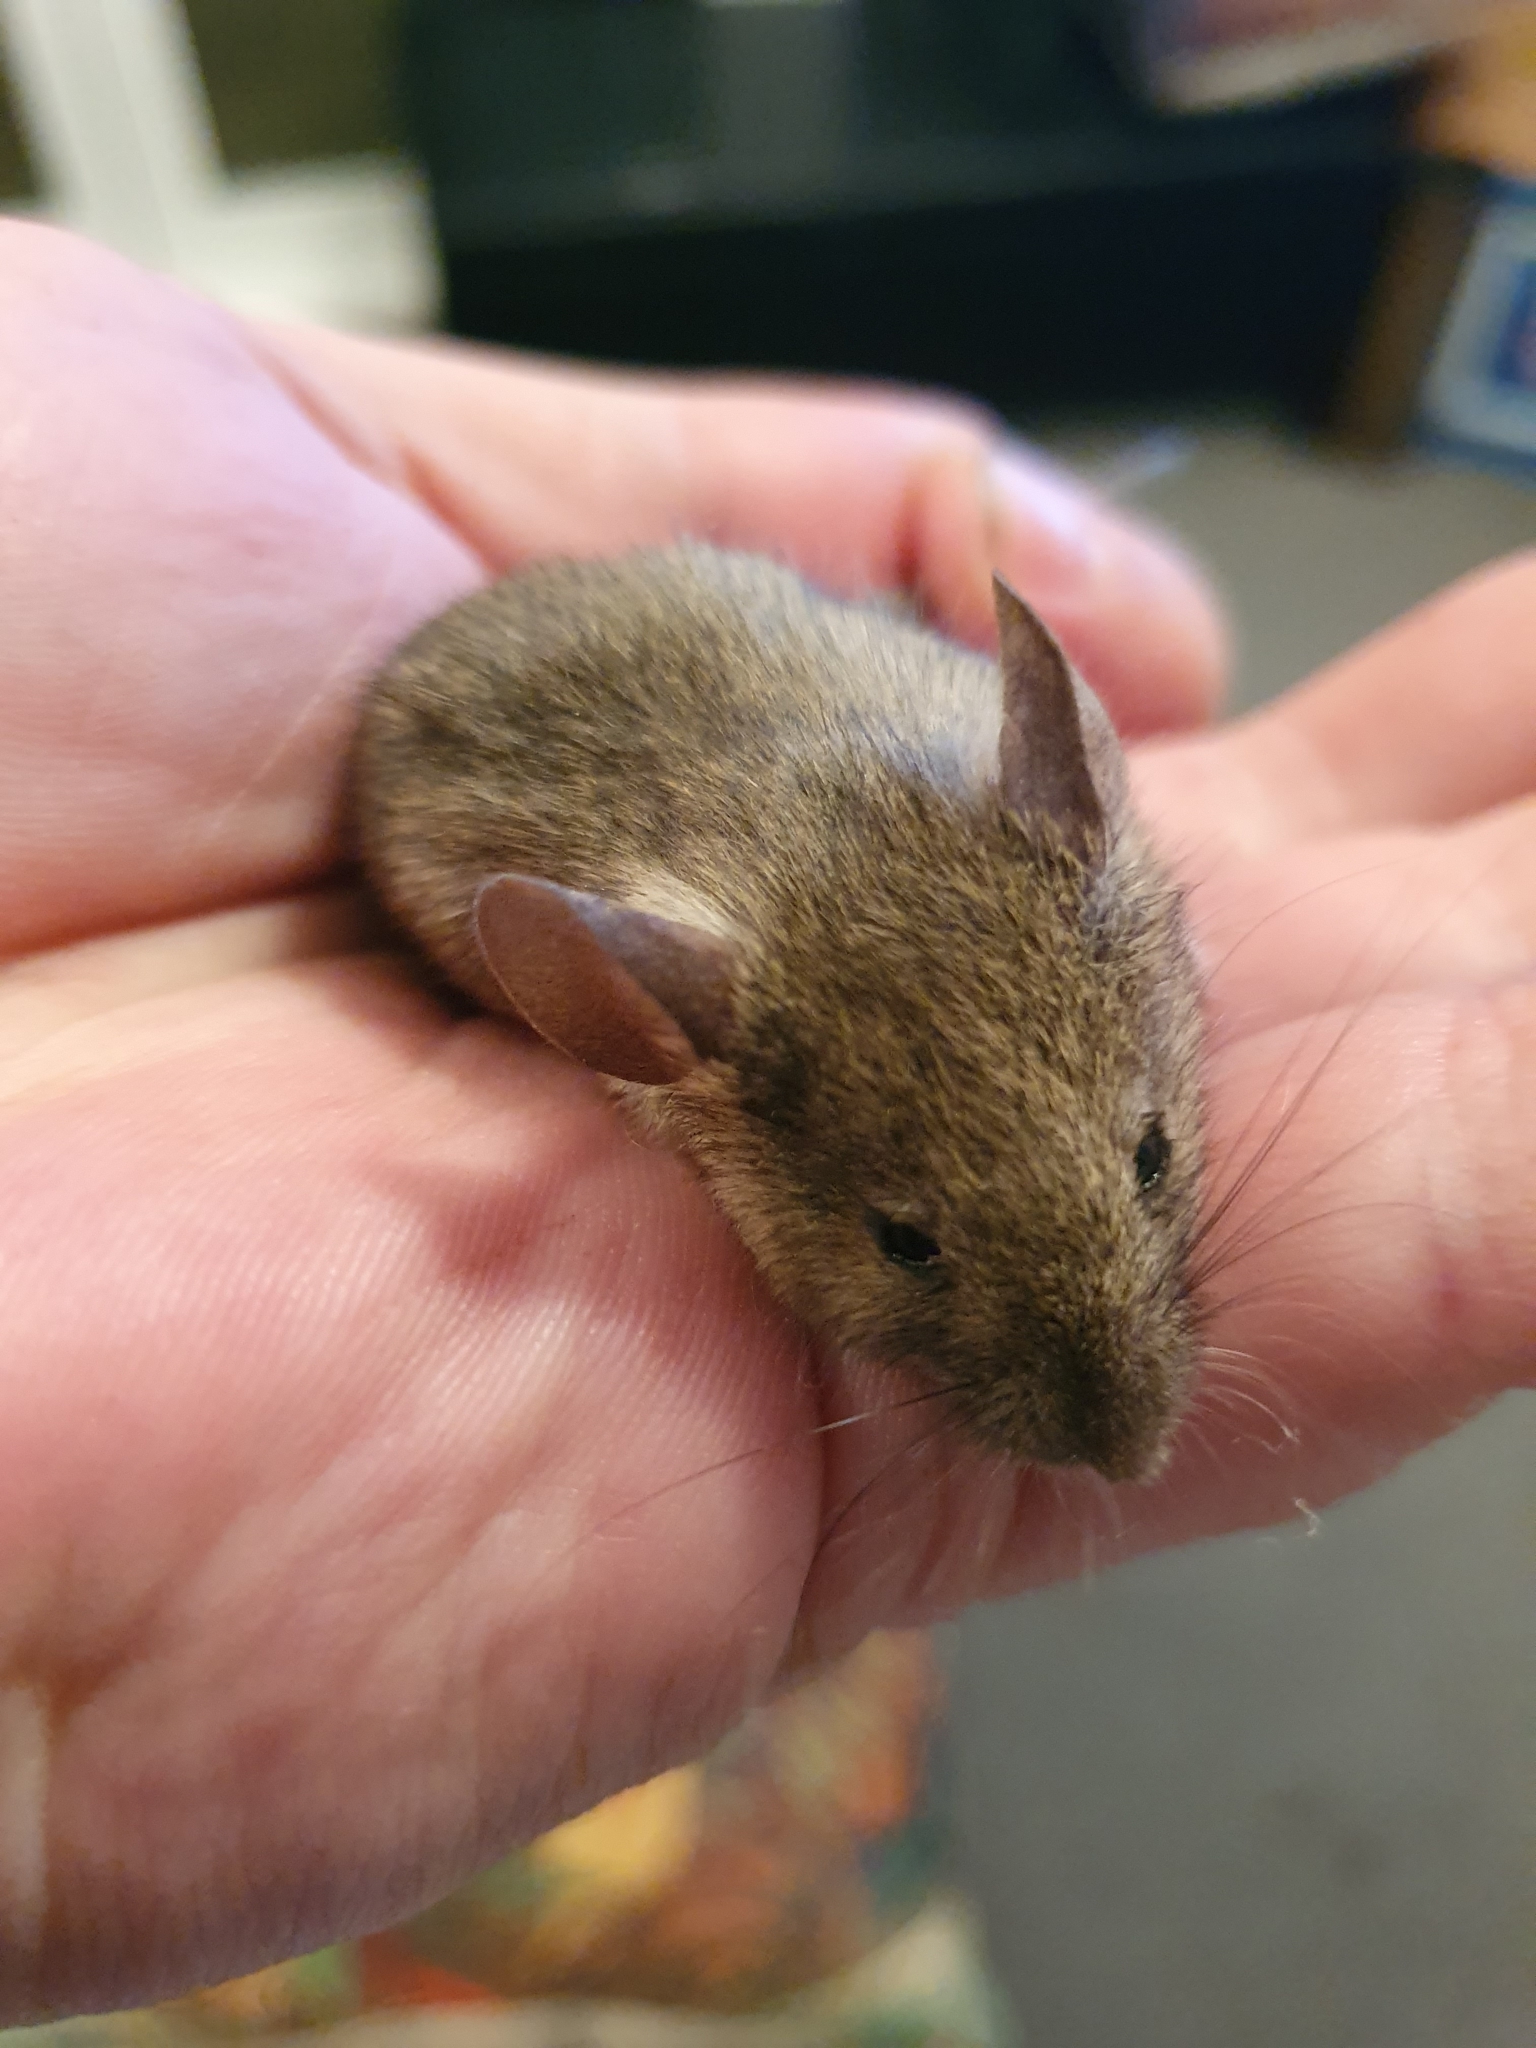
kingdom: Animalia
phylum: Chordata
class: Mammalia
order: Rodentia
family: Muridae
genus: Mus
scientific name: Mus musculus
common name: House mouse
